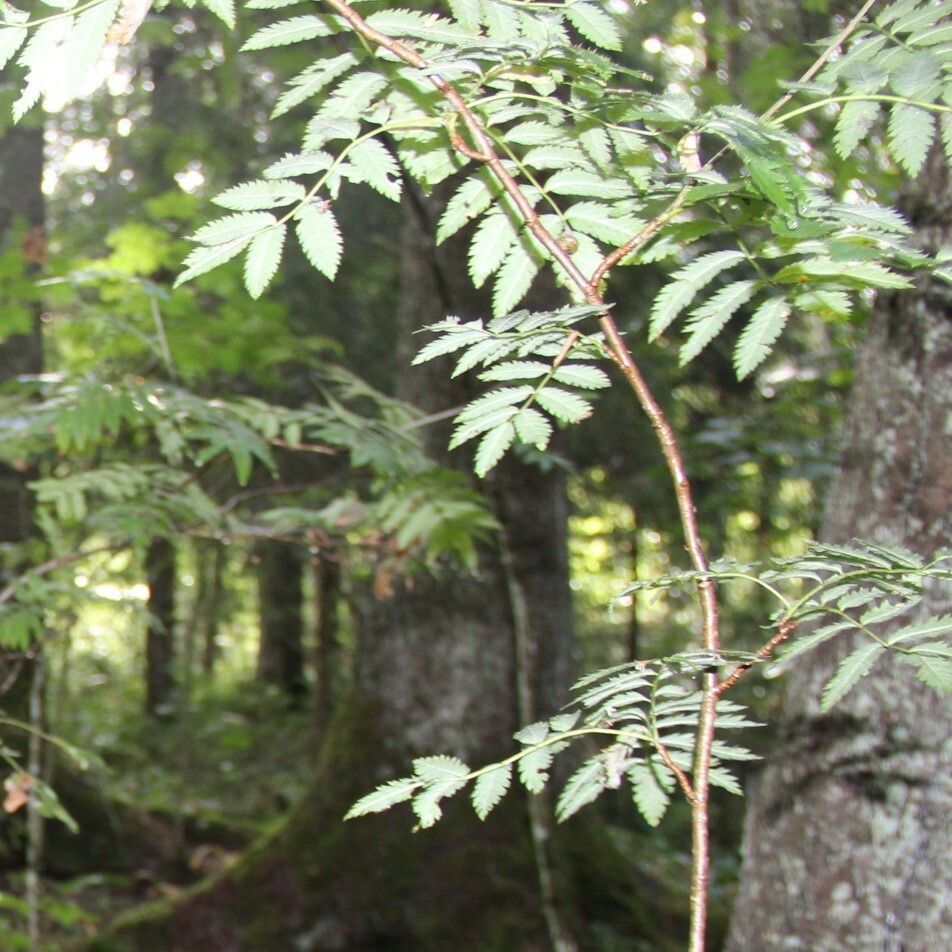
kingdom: Plantae
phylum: Tracheophyta
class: Magnoliopsida
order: Rosales
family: Rosaceae
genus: Sorbus
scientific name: Sorbus aucuparia
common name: Rowan
